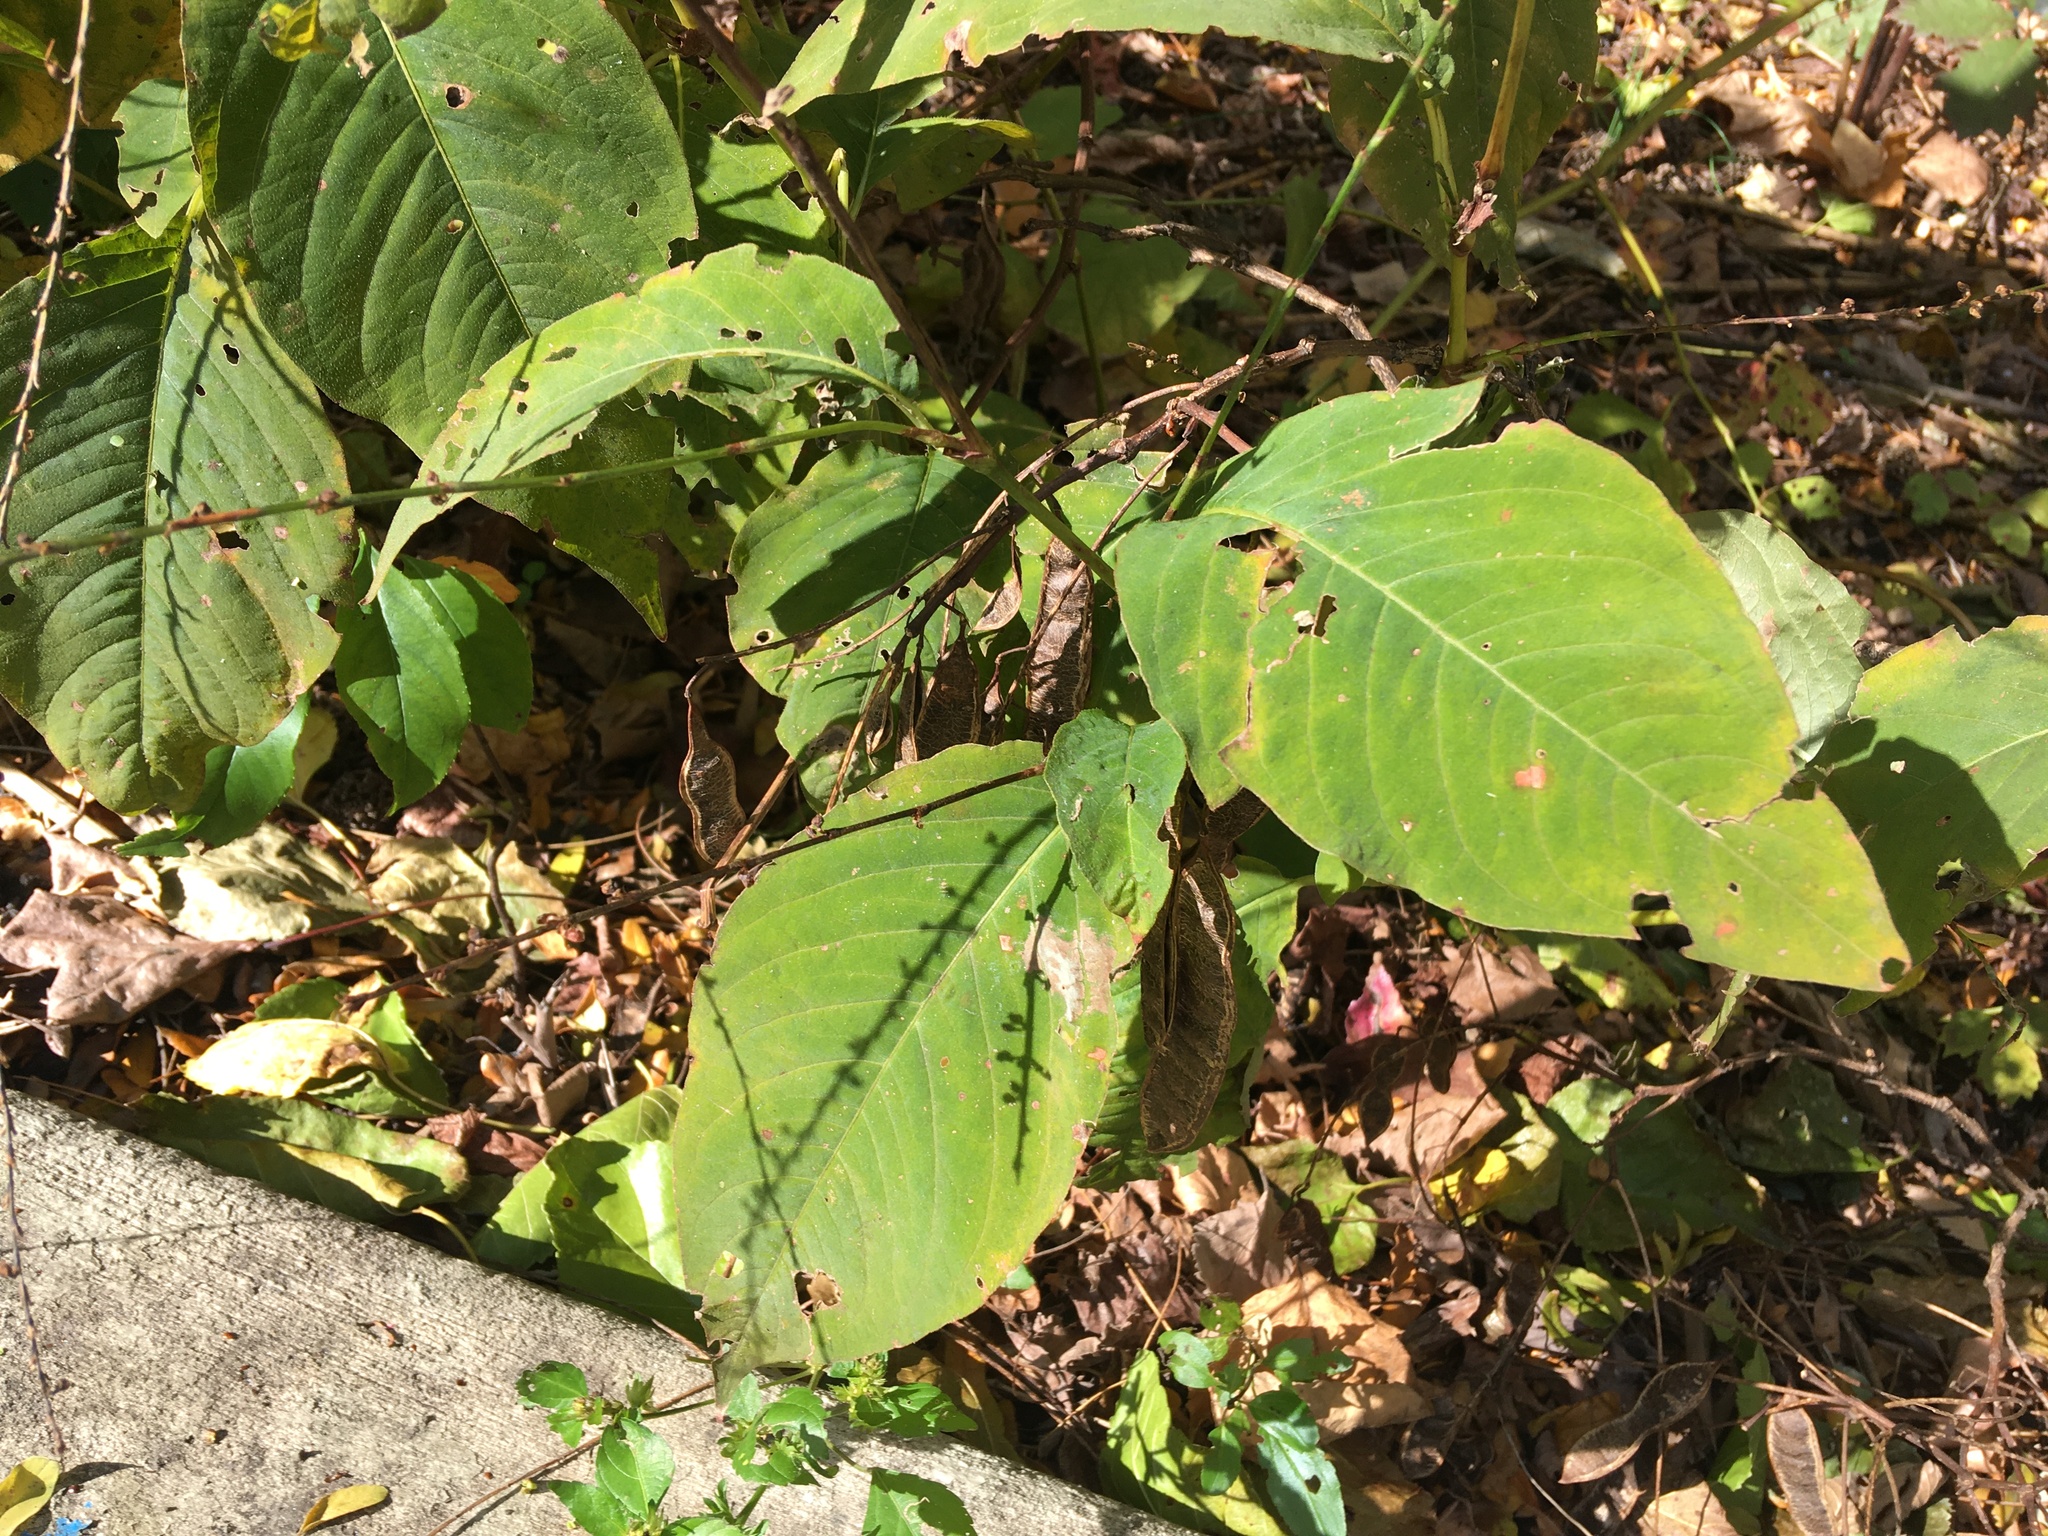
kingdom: Plantae
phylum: Tracheophyta
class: Magnoliopsida
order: Caryophyllales
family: Polygonaceae
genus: Persicaria
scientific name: Persicaria virginiana
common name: Jumpseed
